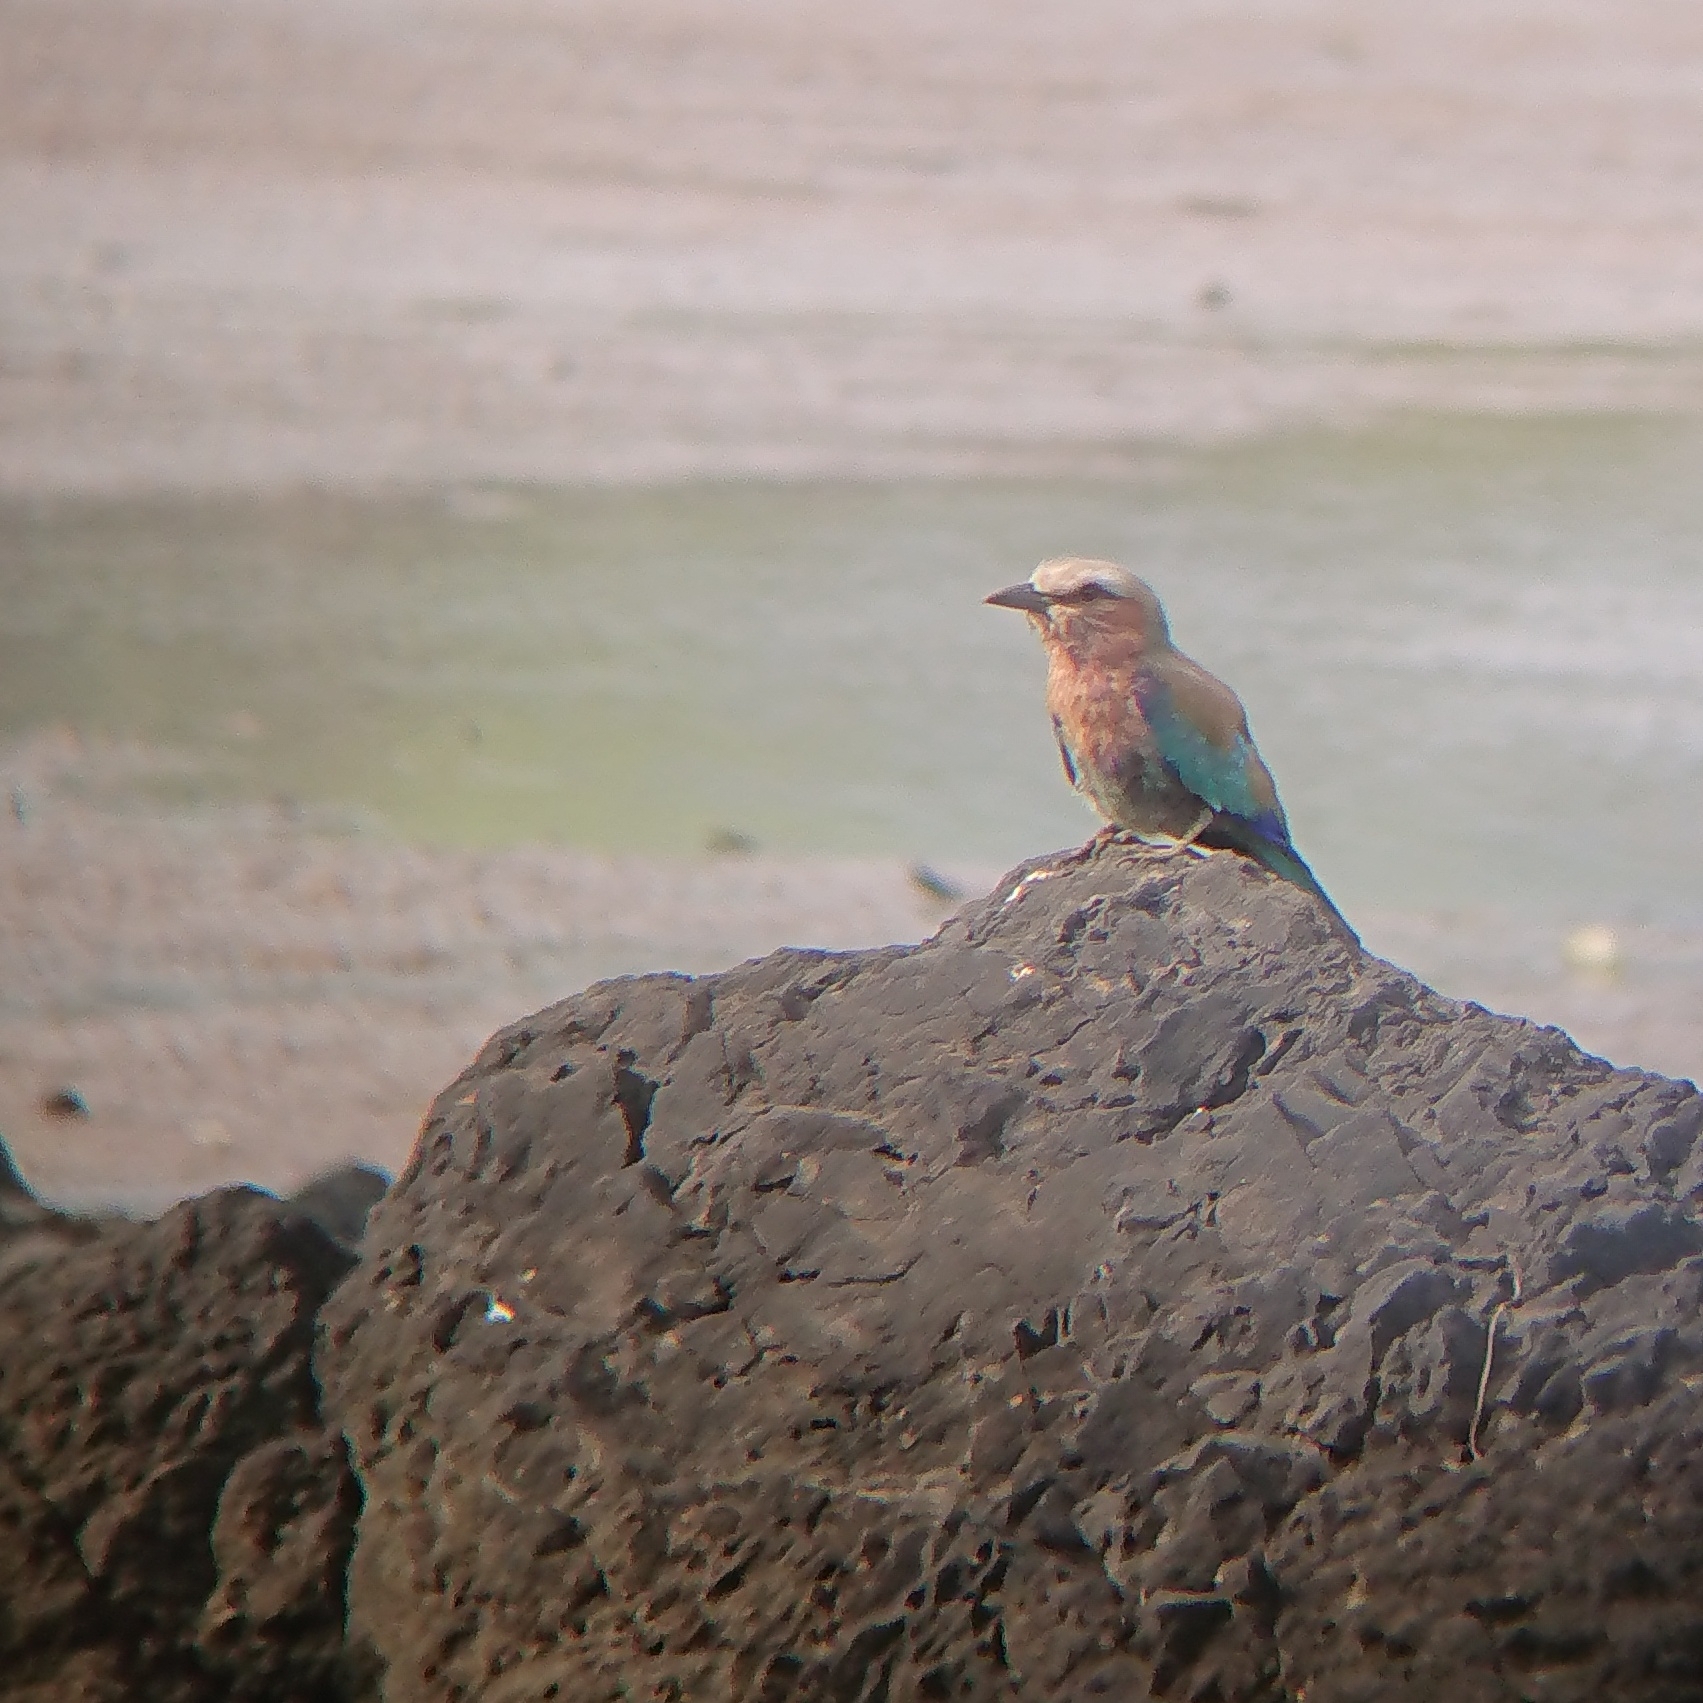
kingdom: Animalia
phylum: Chordata
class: Aves
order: Coraciiformes
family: Coraciidae
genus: Coracias
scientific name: Coracias caudatus
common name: Lilac-breasted roller
